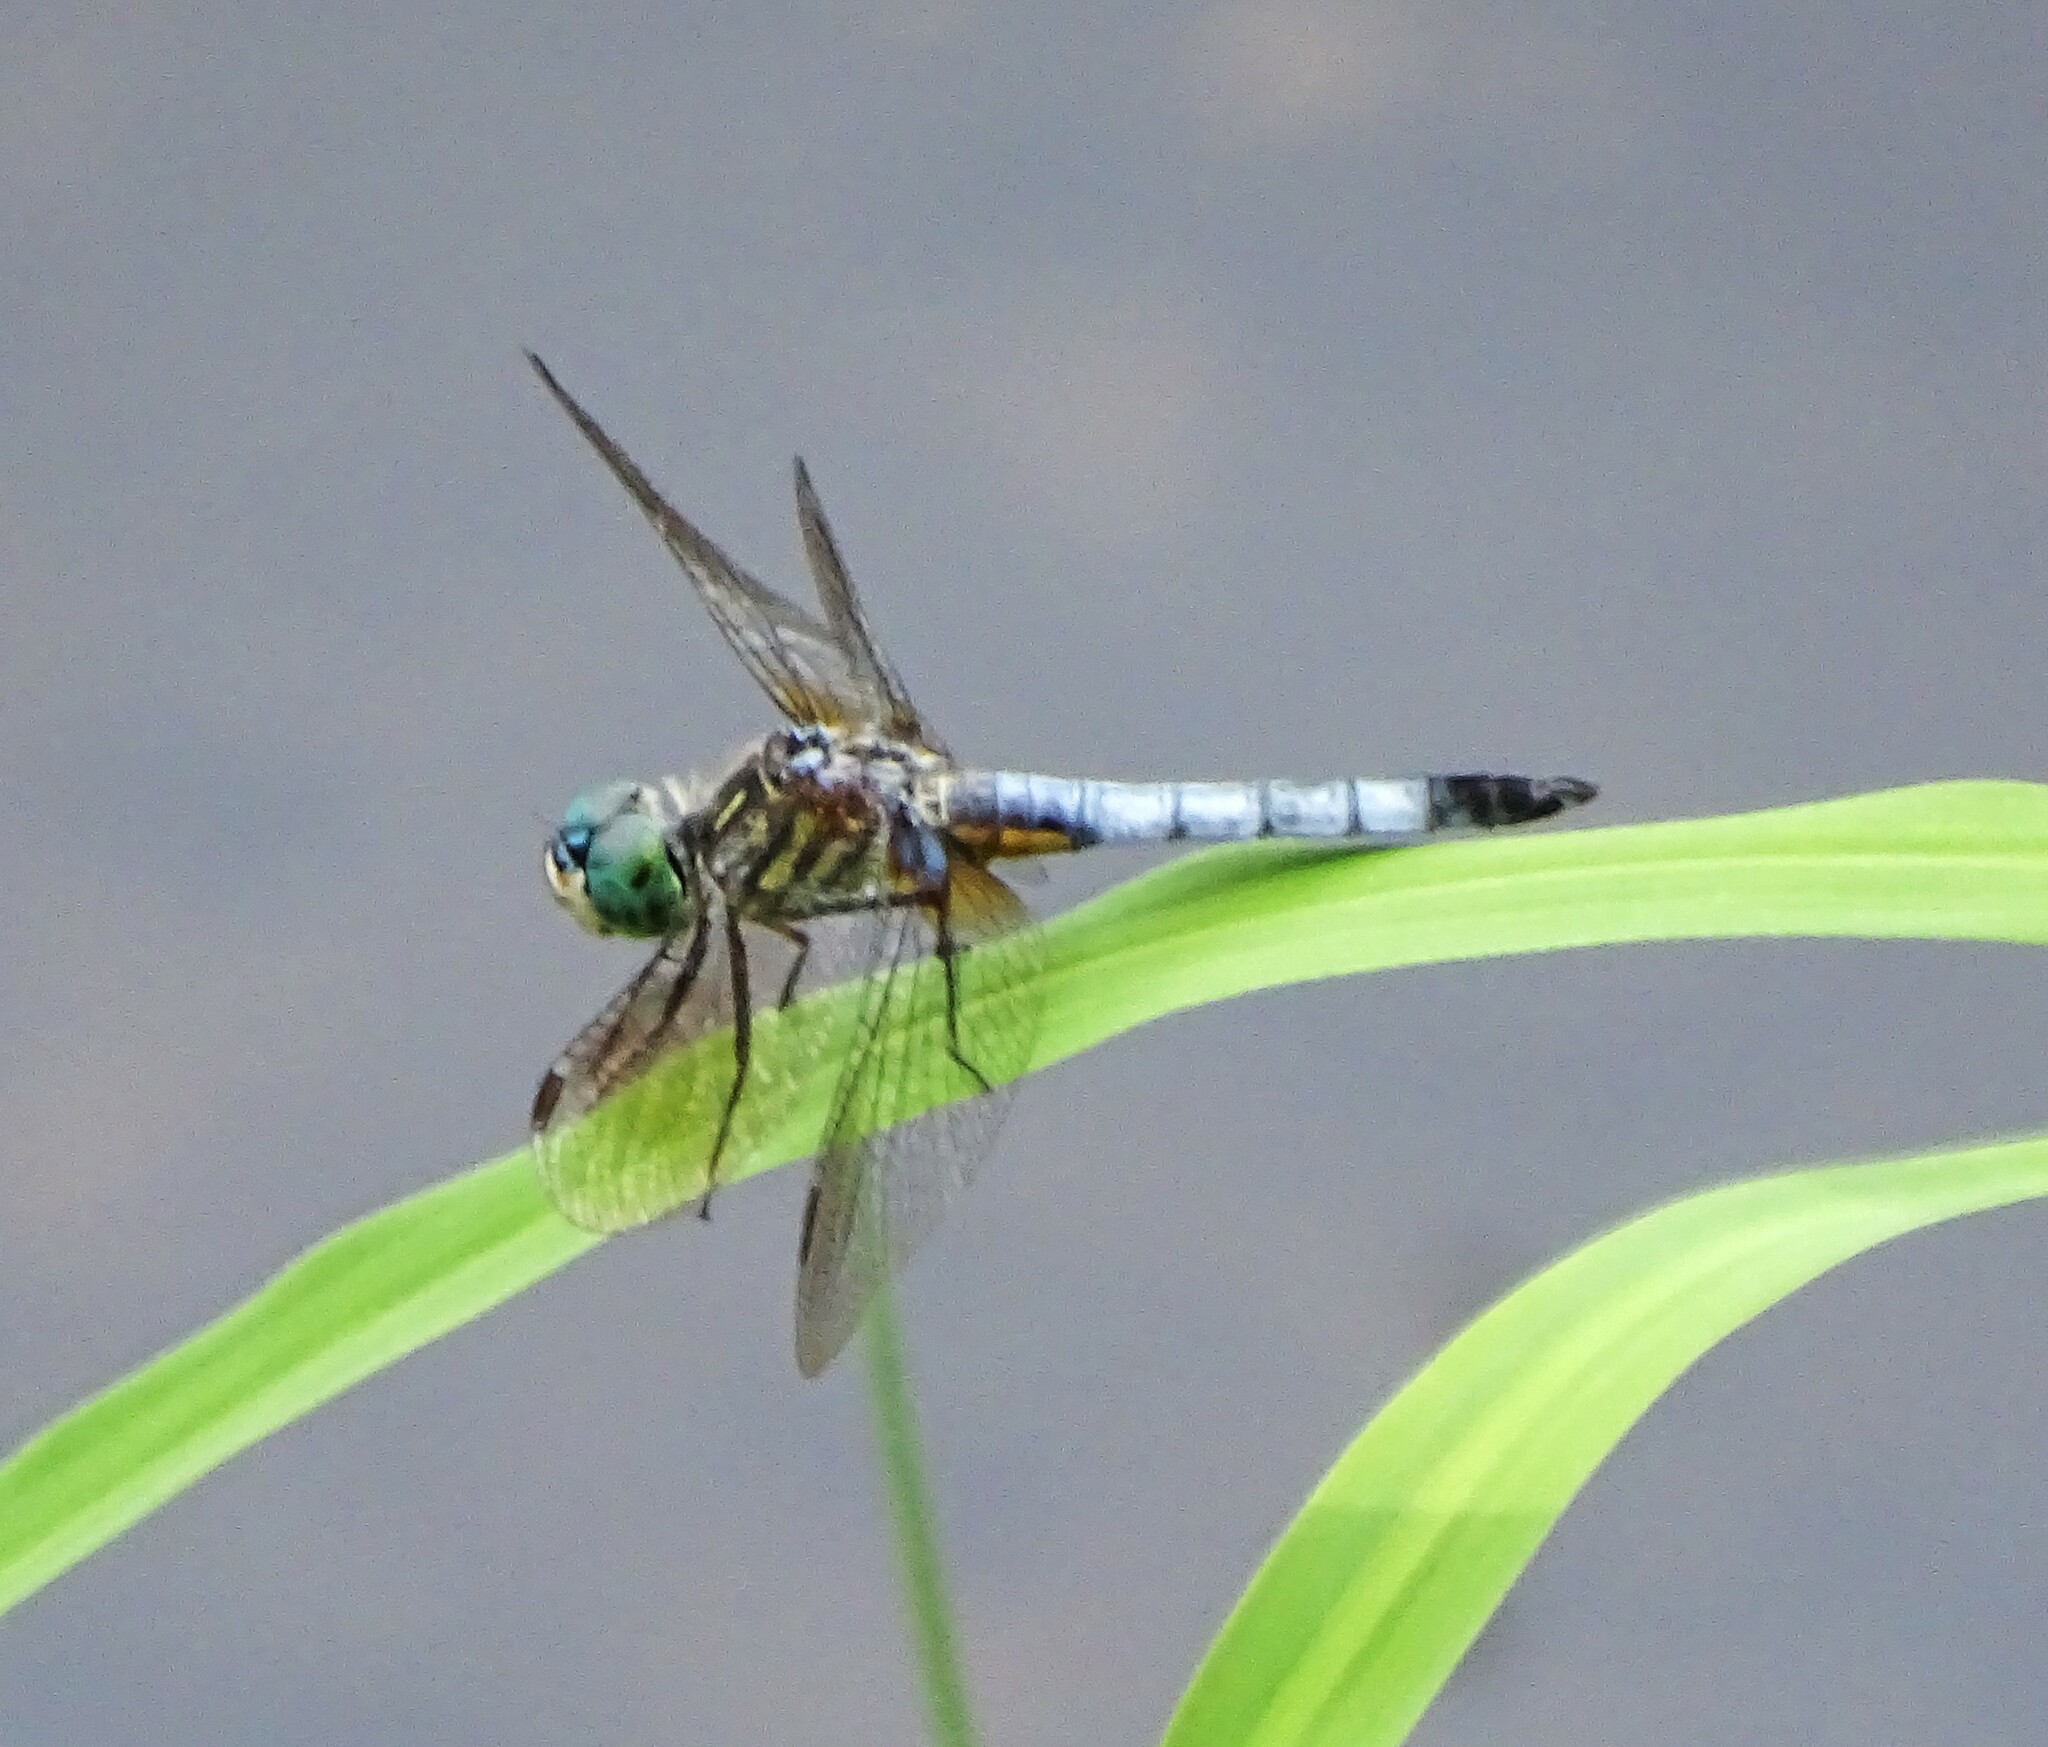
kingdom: Animalia
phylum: Arthropoda
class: Insecta
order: Odonata
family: Libellulidae
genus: Pachydiplax
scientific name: Pachydiplax longipennis
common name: Blue dasher
